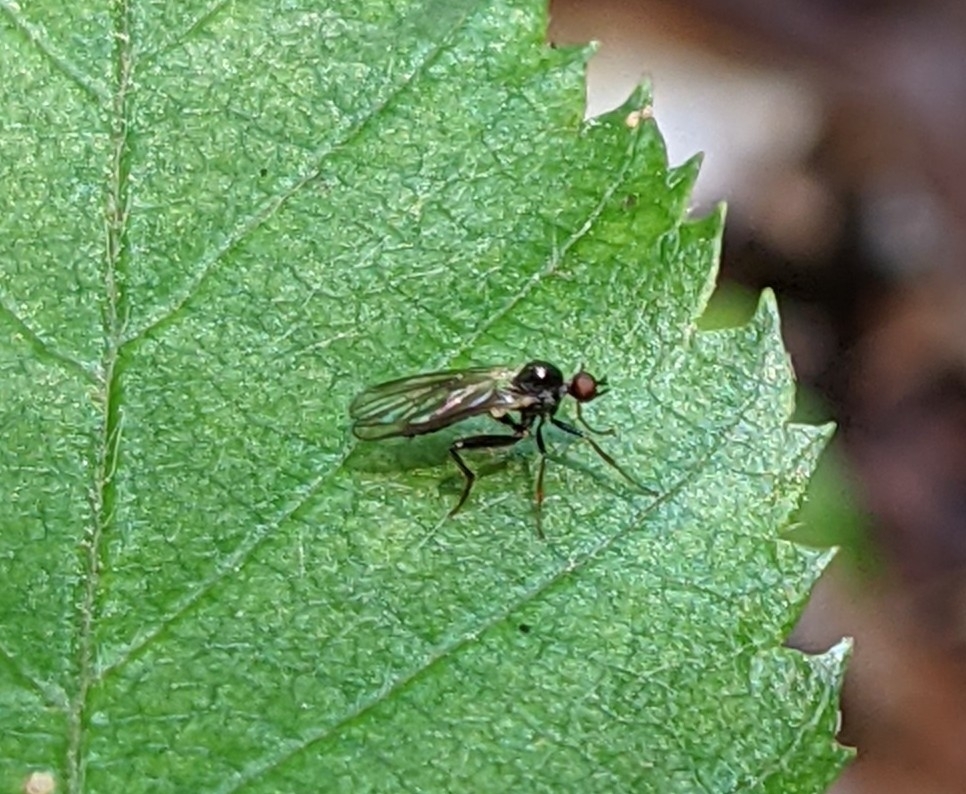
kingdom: Animalia
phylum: Arthropoda
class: Insecta
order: Diptera
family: Hybotidae
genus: Hybos
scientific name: Hybos reversus
